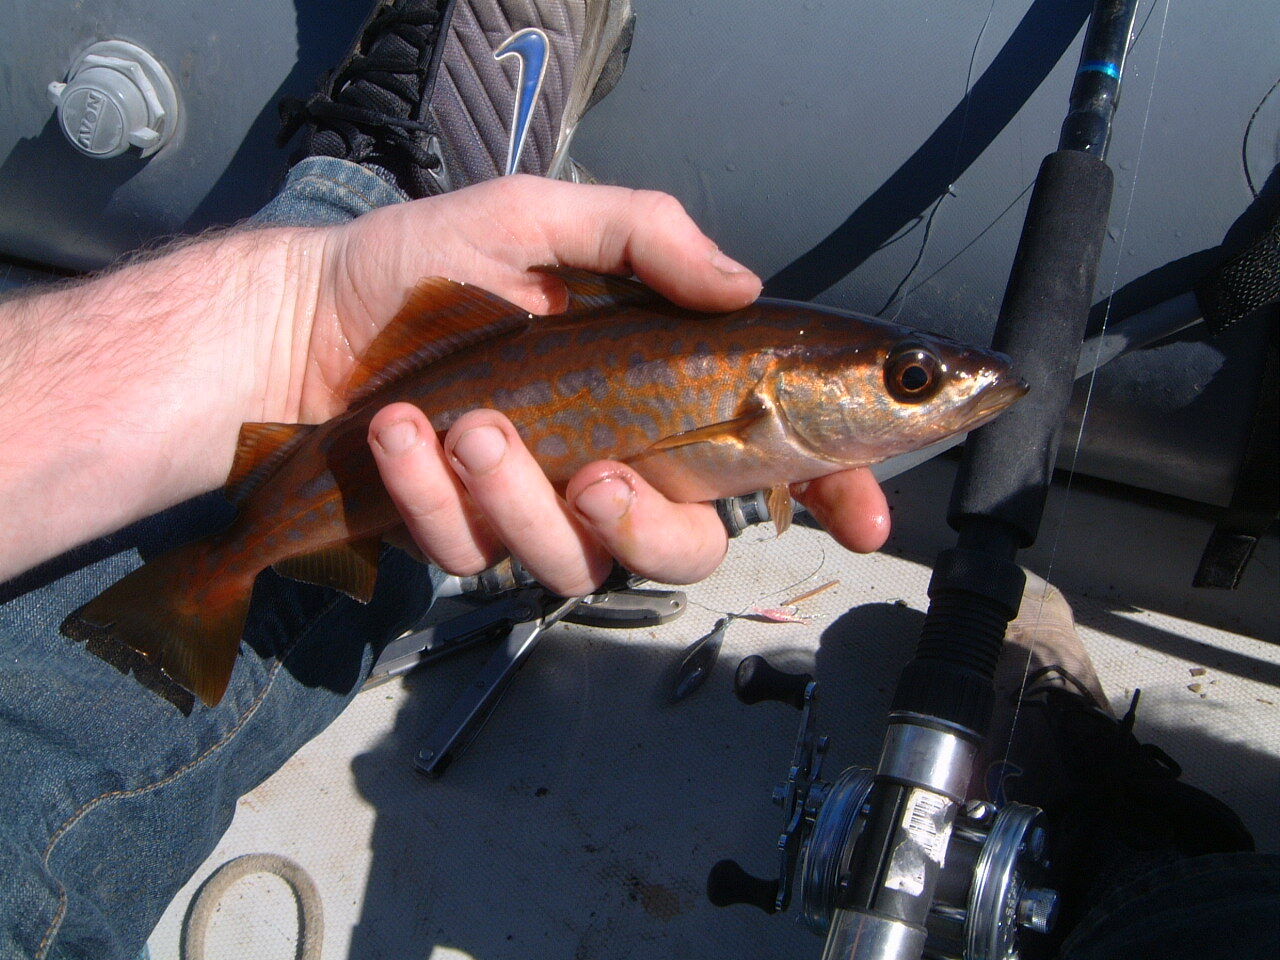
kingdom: Animalia
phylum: Chordata
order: Gadiformes
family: Gadidae
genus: Pollachius
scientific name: Pollachius pollachius
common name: Pollack
